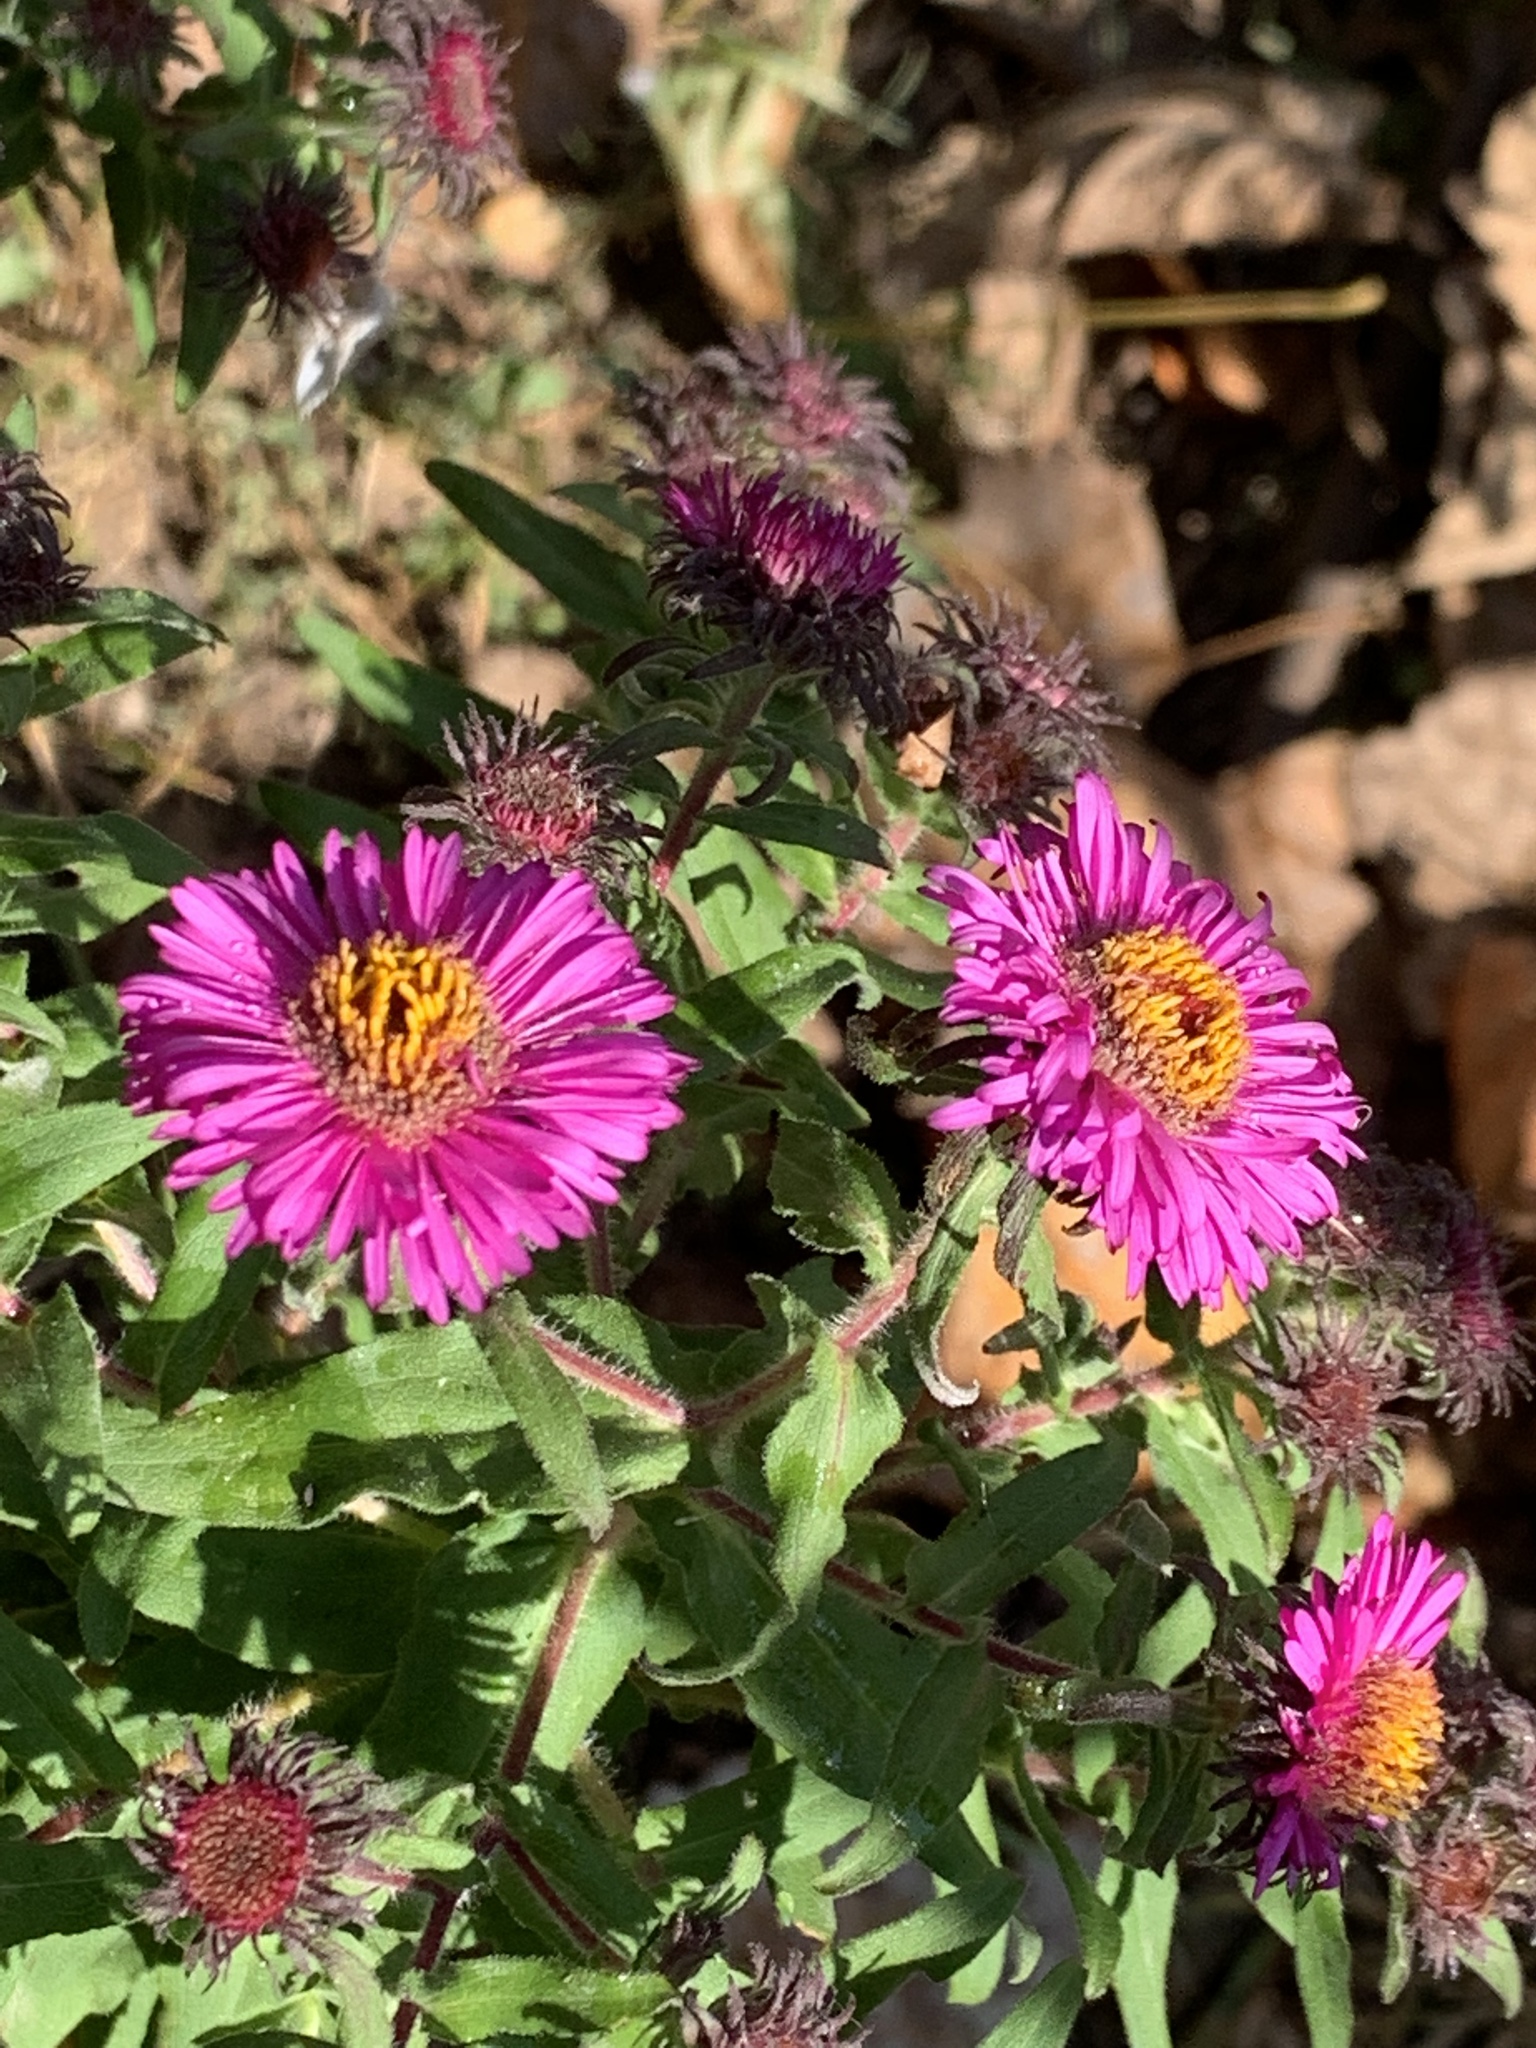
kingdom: Plantae
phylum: Tracheophyta
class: Magnoliopsida
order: Asterales
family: Asteraceae
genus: Symphyotrichum
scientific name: Symphyotrichum novae-angliae
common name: Michaelmas daisy
